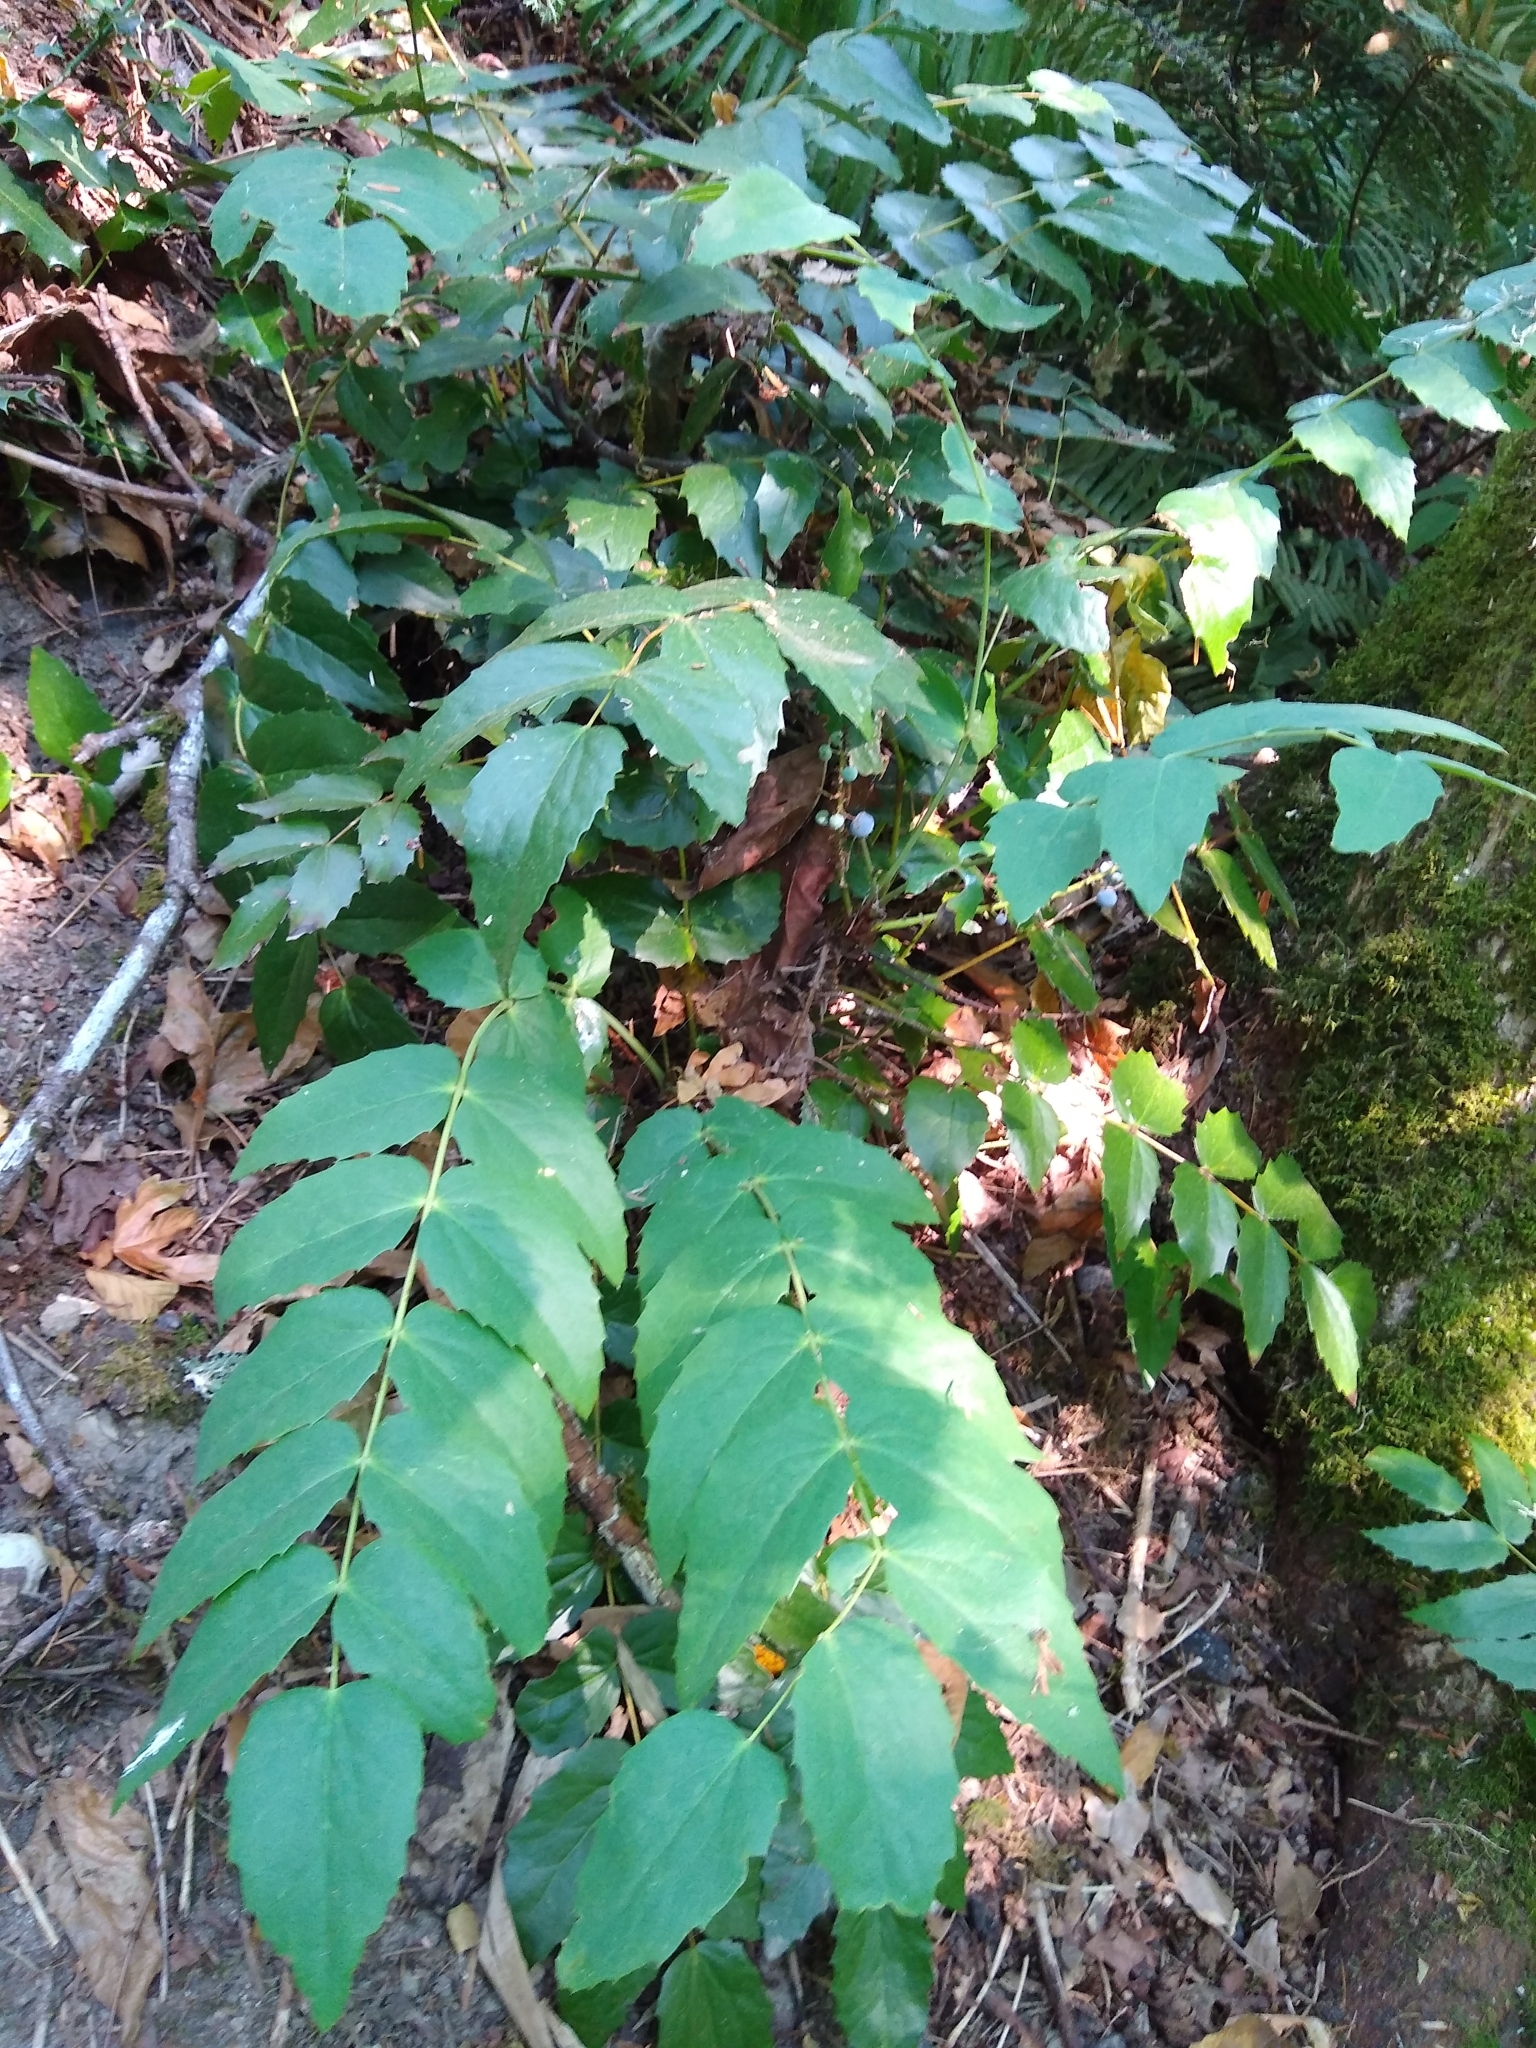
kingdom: Plantae
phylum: Tracheophyta
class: Magnoliopsida
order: Ranunculales
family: Berberidaceae
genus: Mahonia
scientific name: Mahonia nervosa
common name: Cascade oregon-grape
